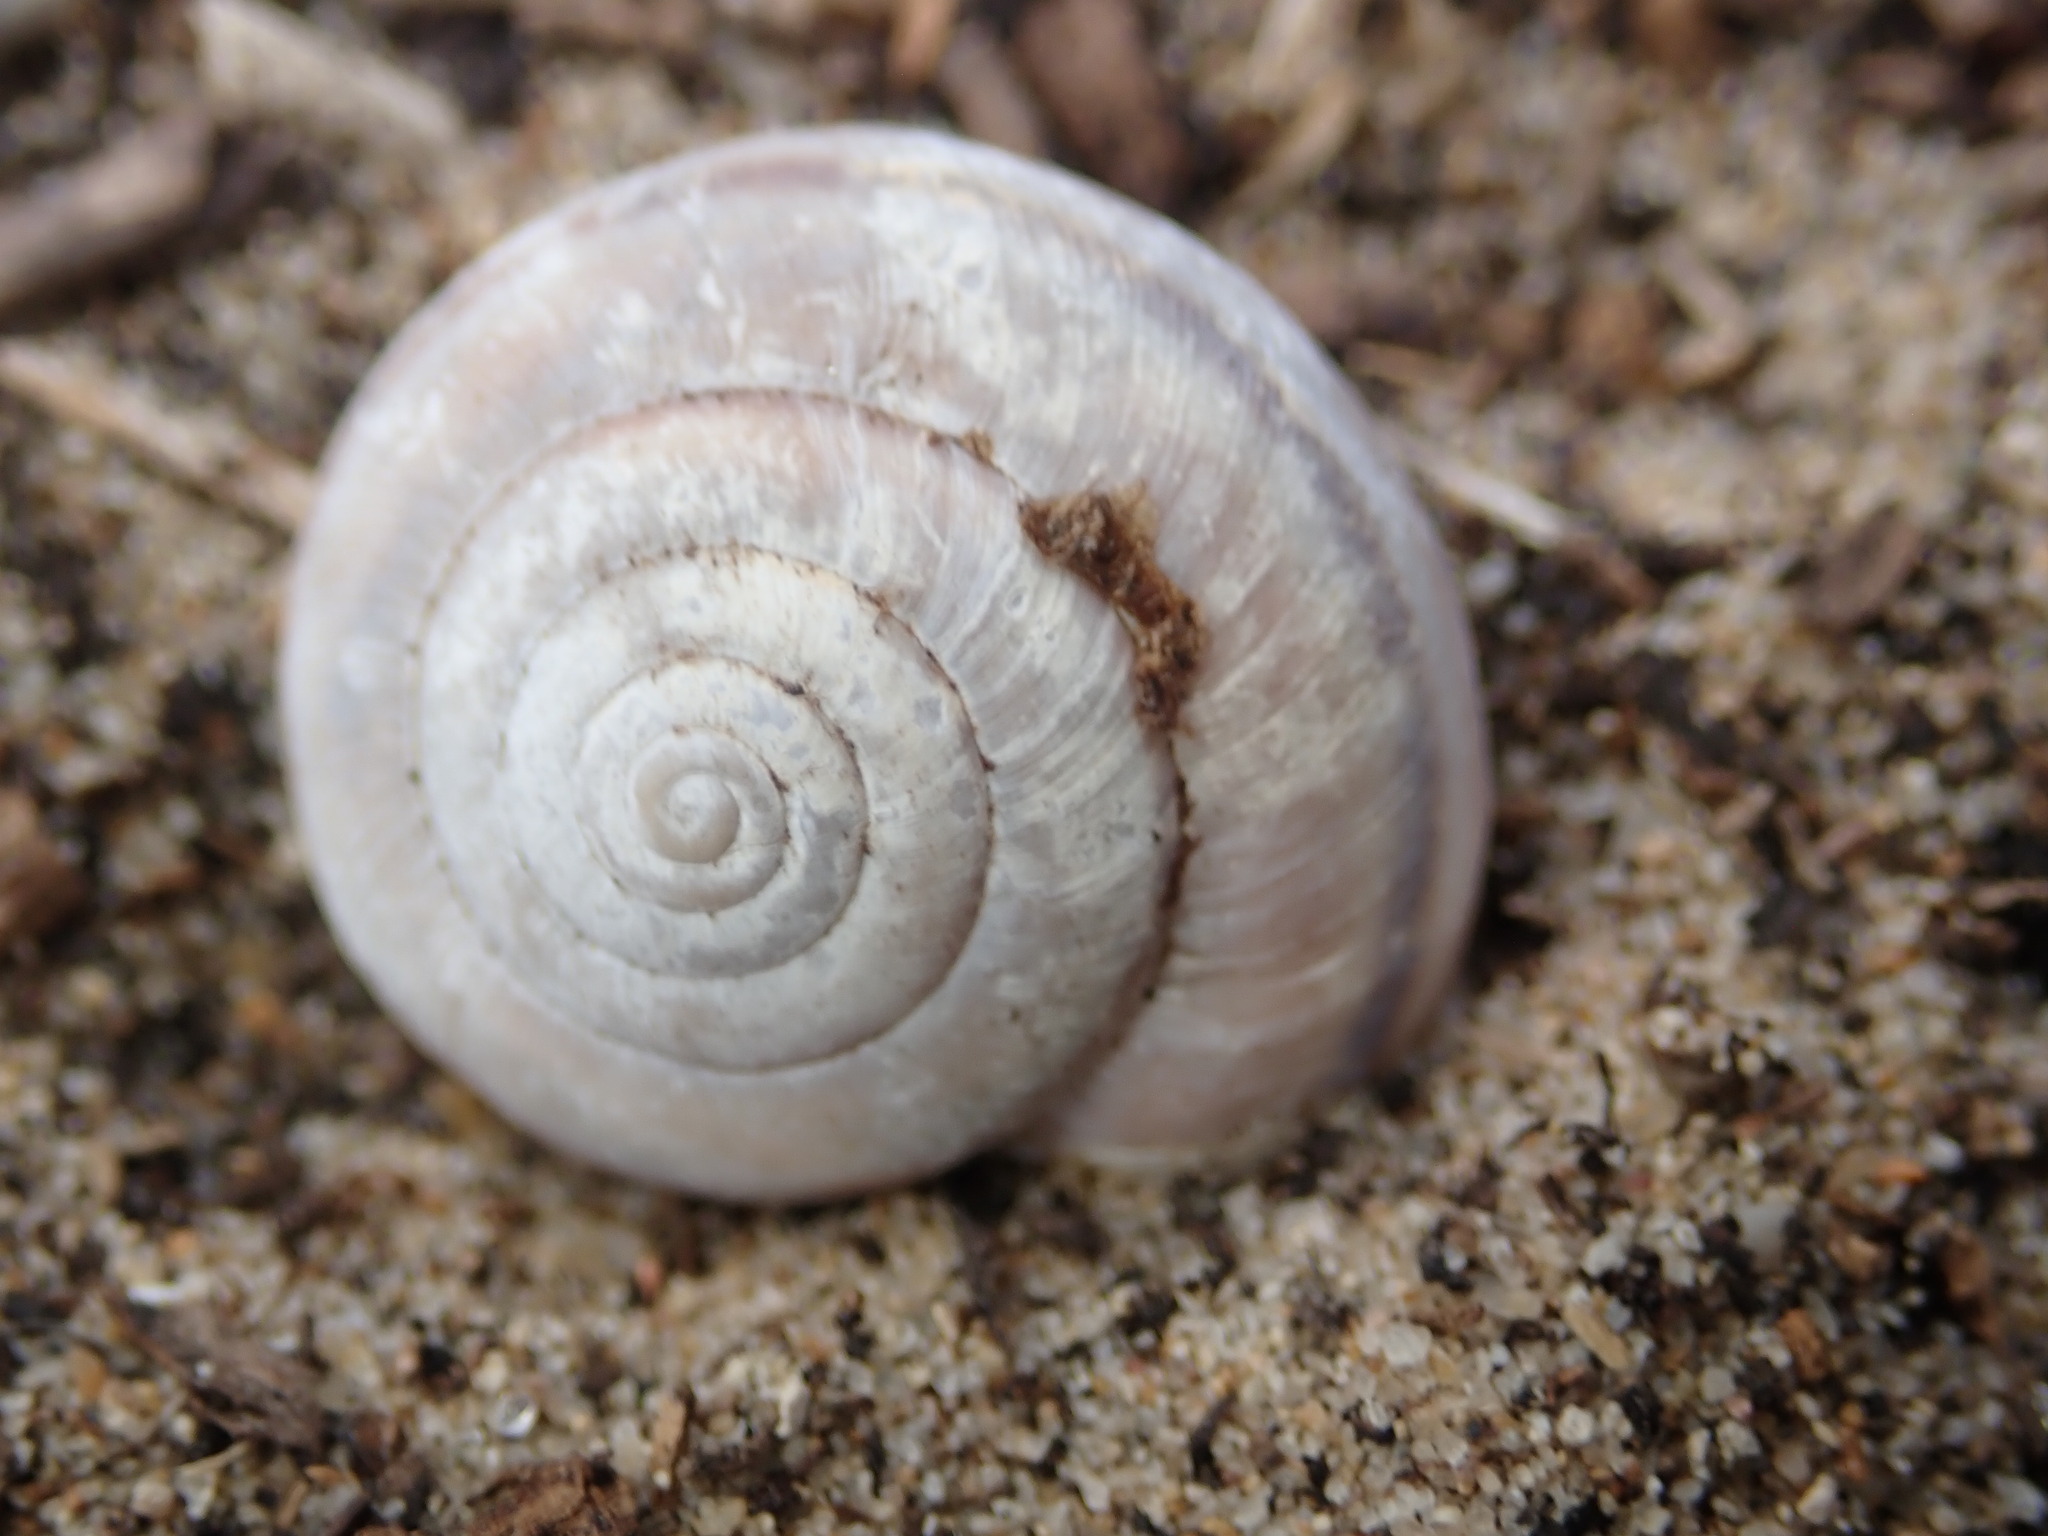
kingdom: Animalia
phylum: Mollusca
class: Gastropoda
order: Stylommatophora
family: Xanthonychidae
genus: Helminthoglypta
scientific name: Helminthoglypta umbilicata
